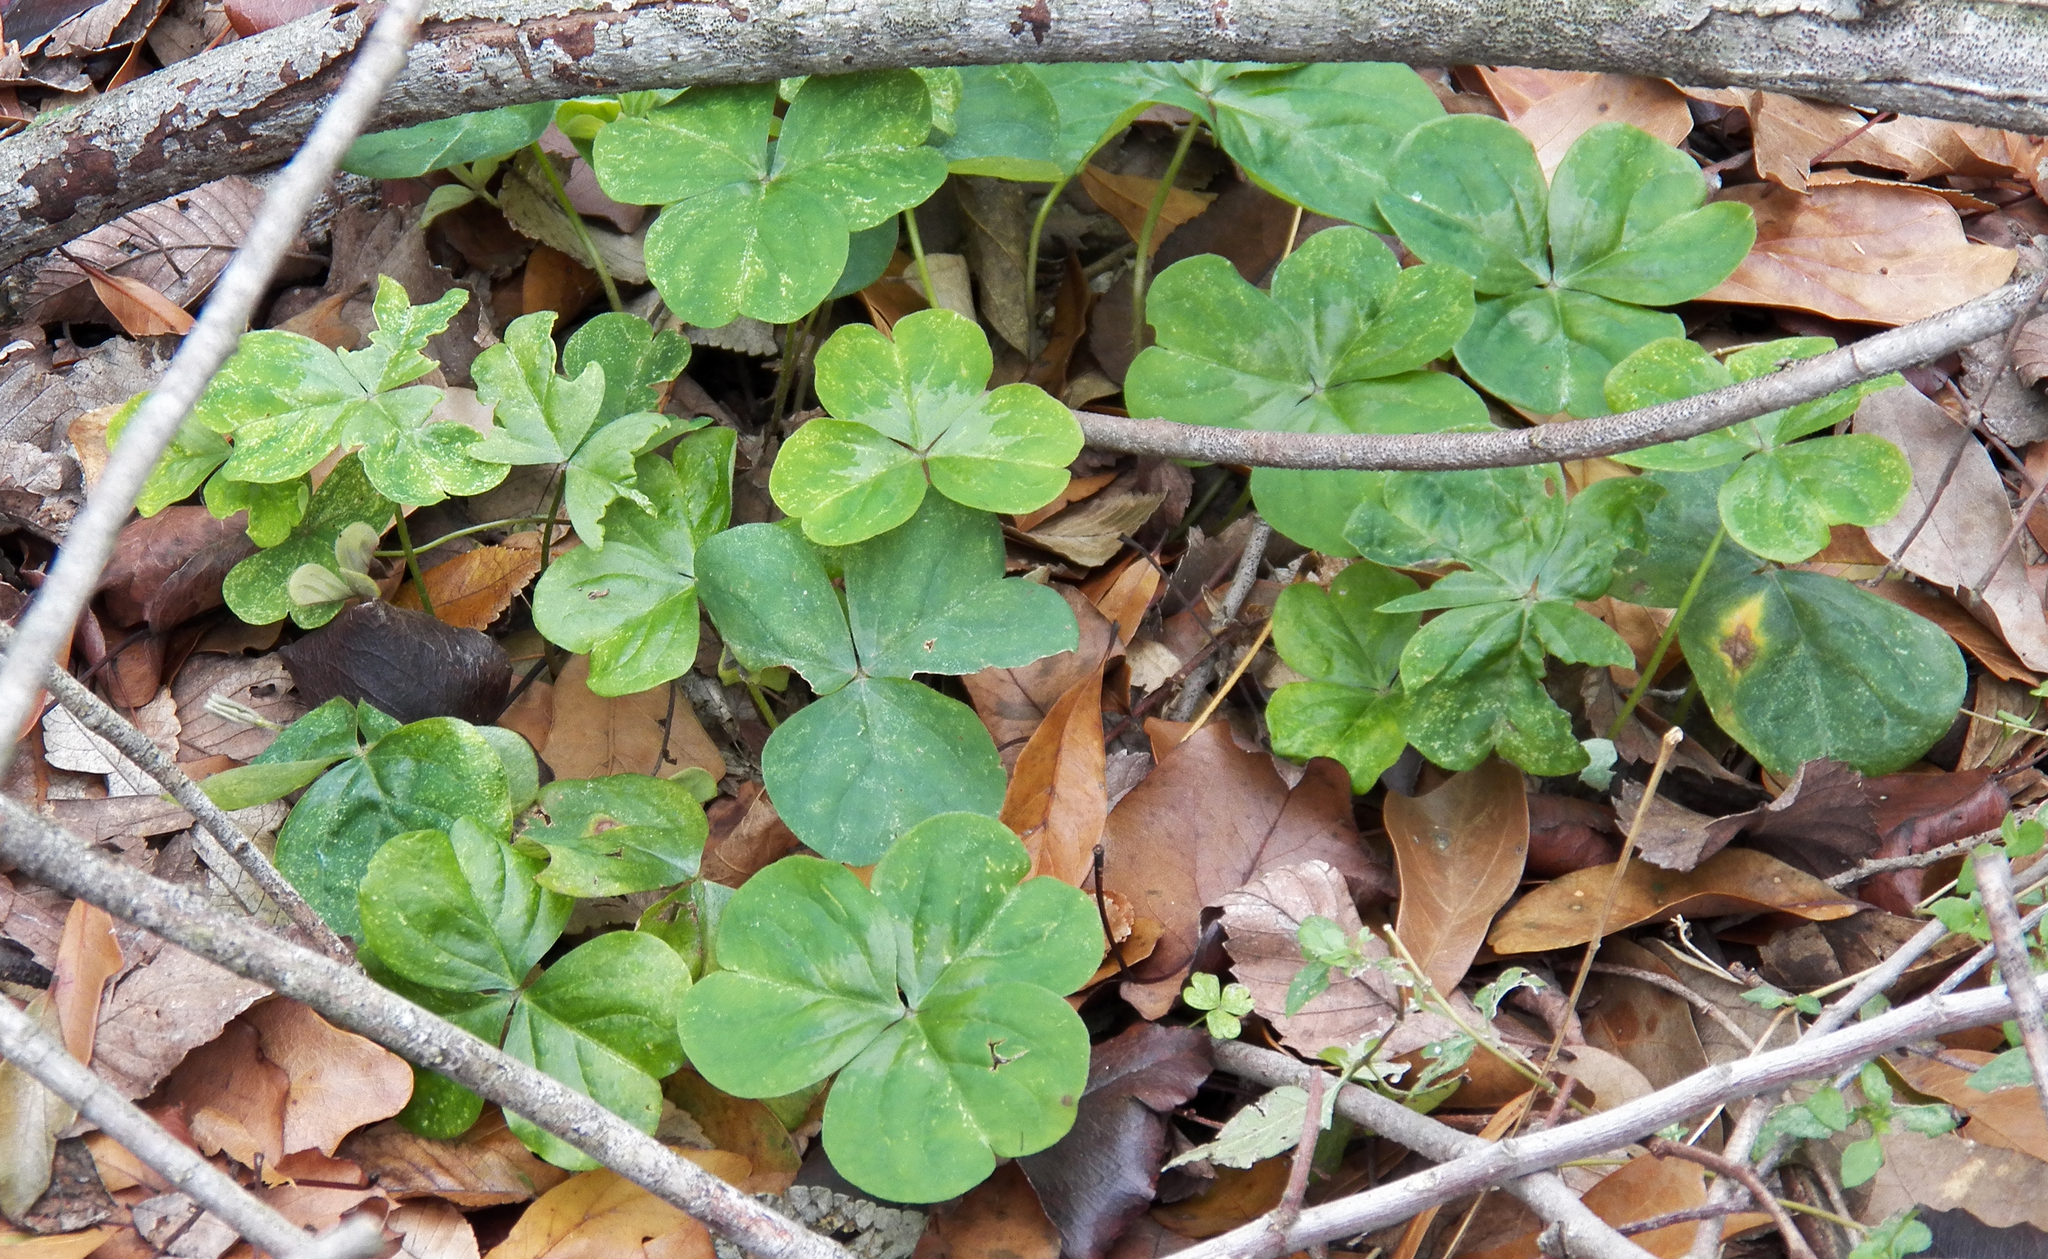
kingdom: Plantae
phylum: Tracheophyta
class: Magnoliopsida
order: Oxalidales
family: Oxalidaceae
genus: Oxalis
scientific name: Oxalis debilis
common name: Large-flowered pink-sorrel
